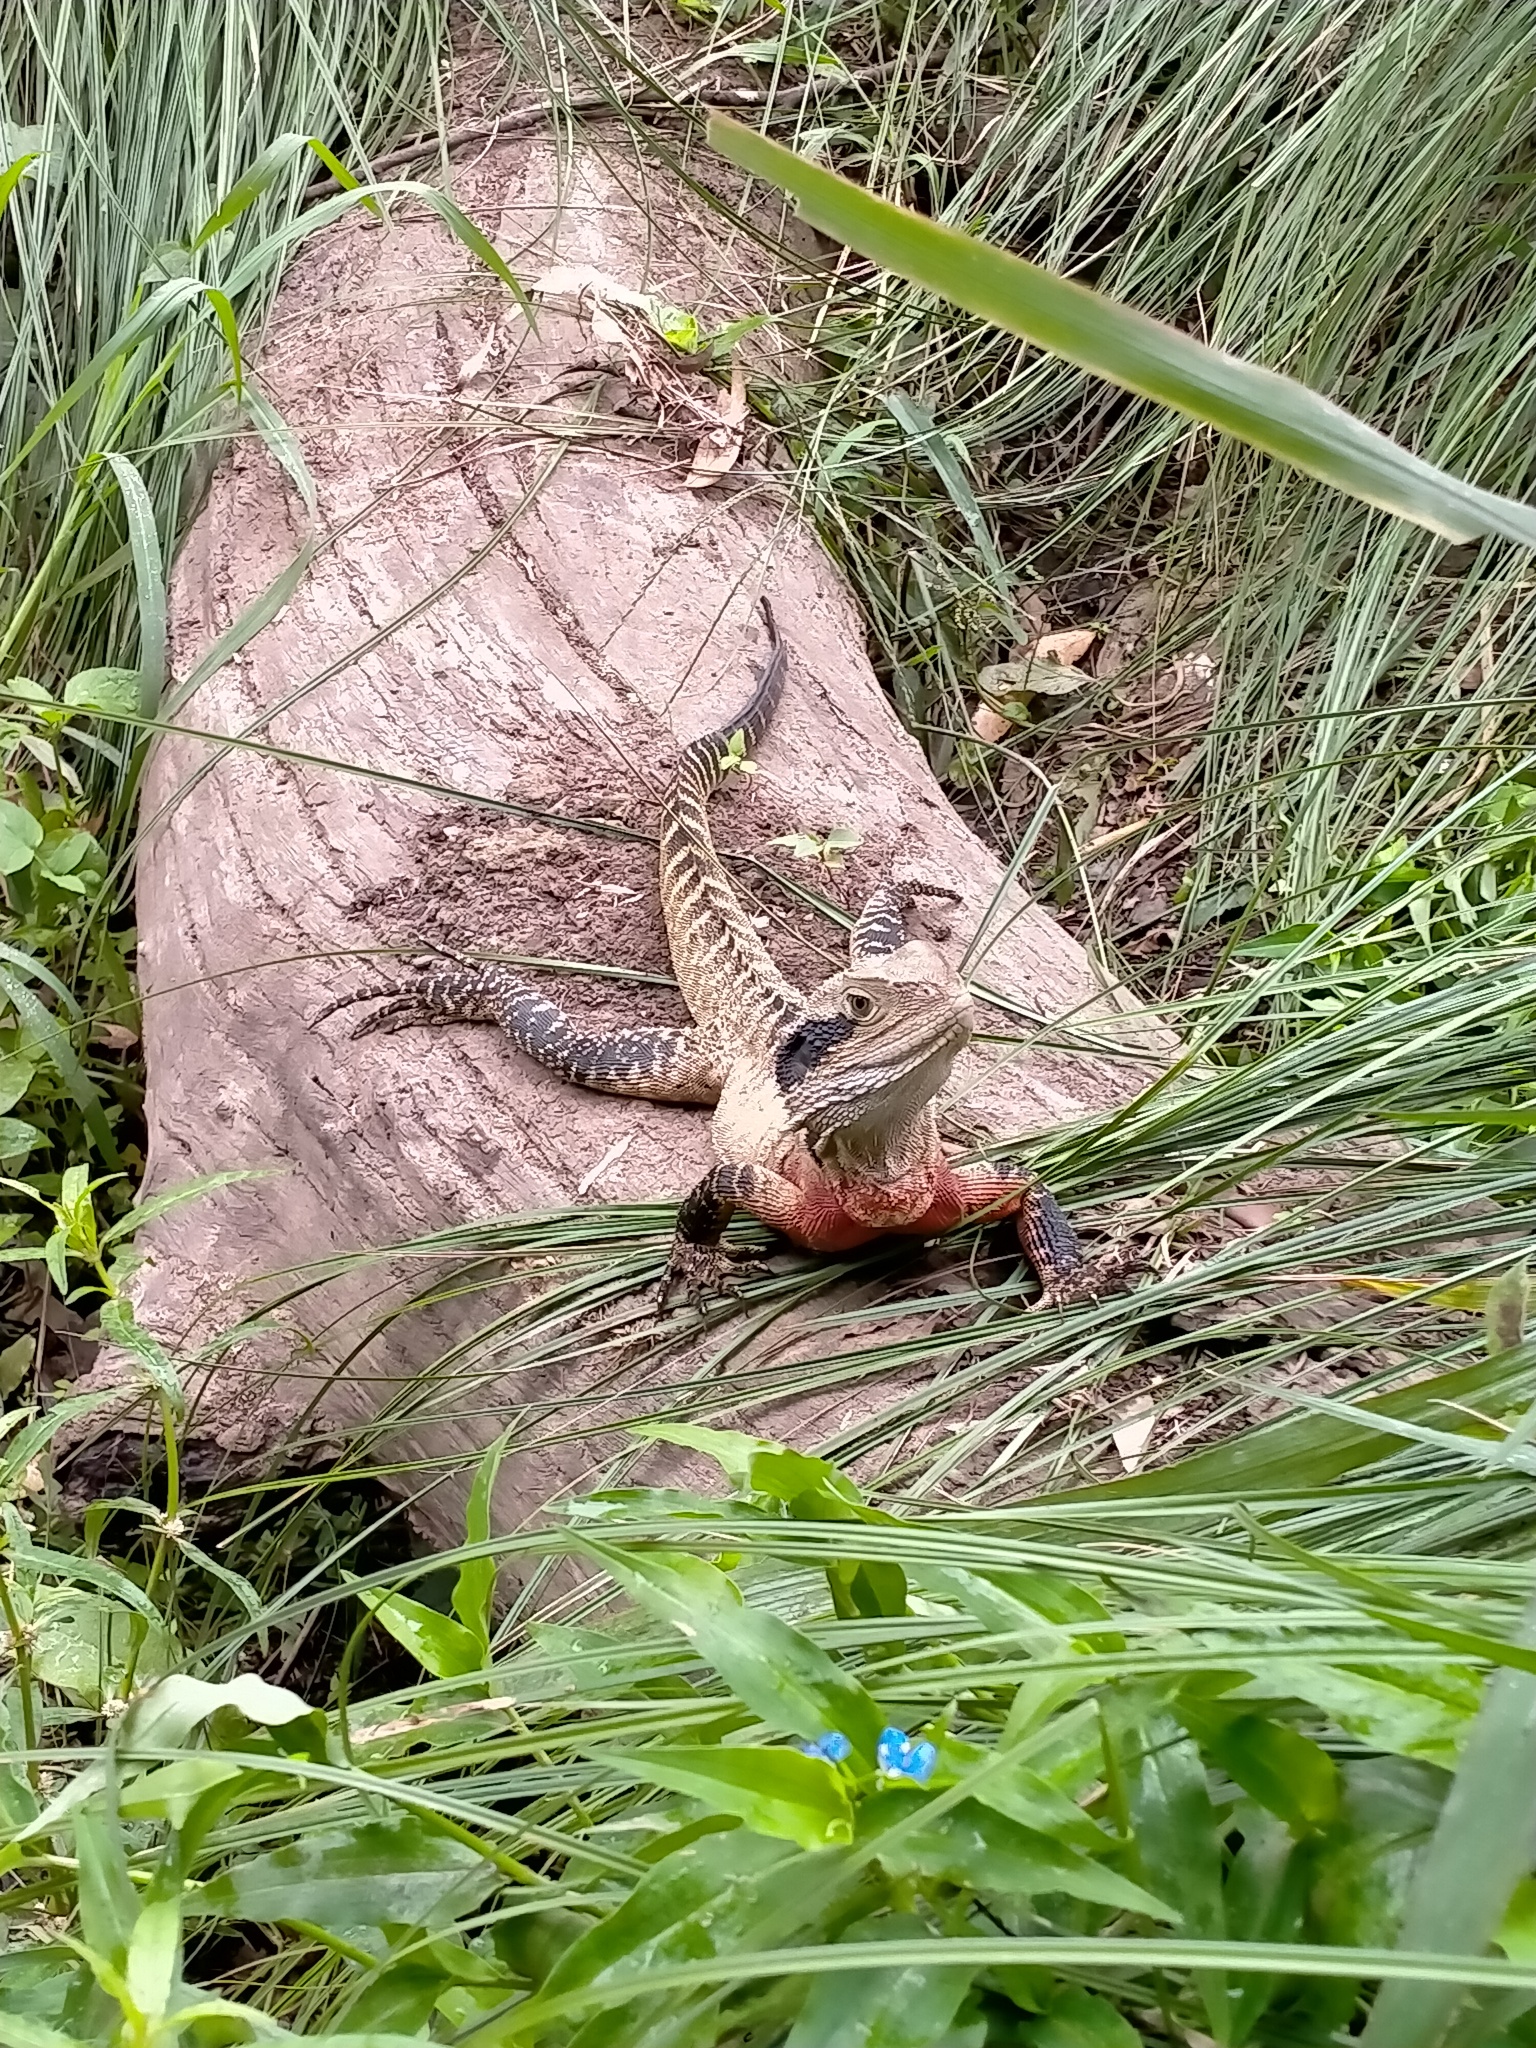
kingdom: Animalia
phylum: Chordata
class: Squamata
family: Agamidae
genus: Intellagama
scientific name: Intellagama lesueurii
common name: Eastern water dragon
